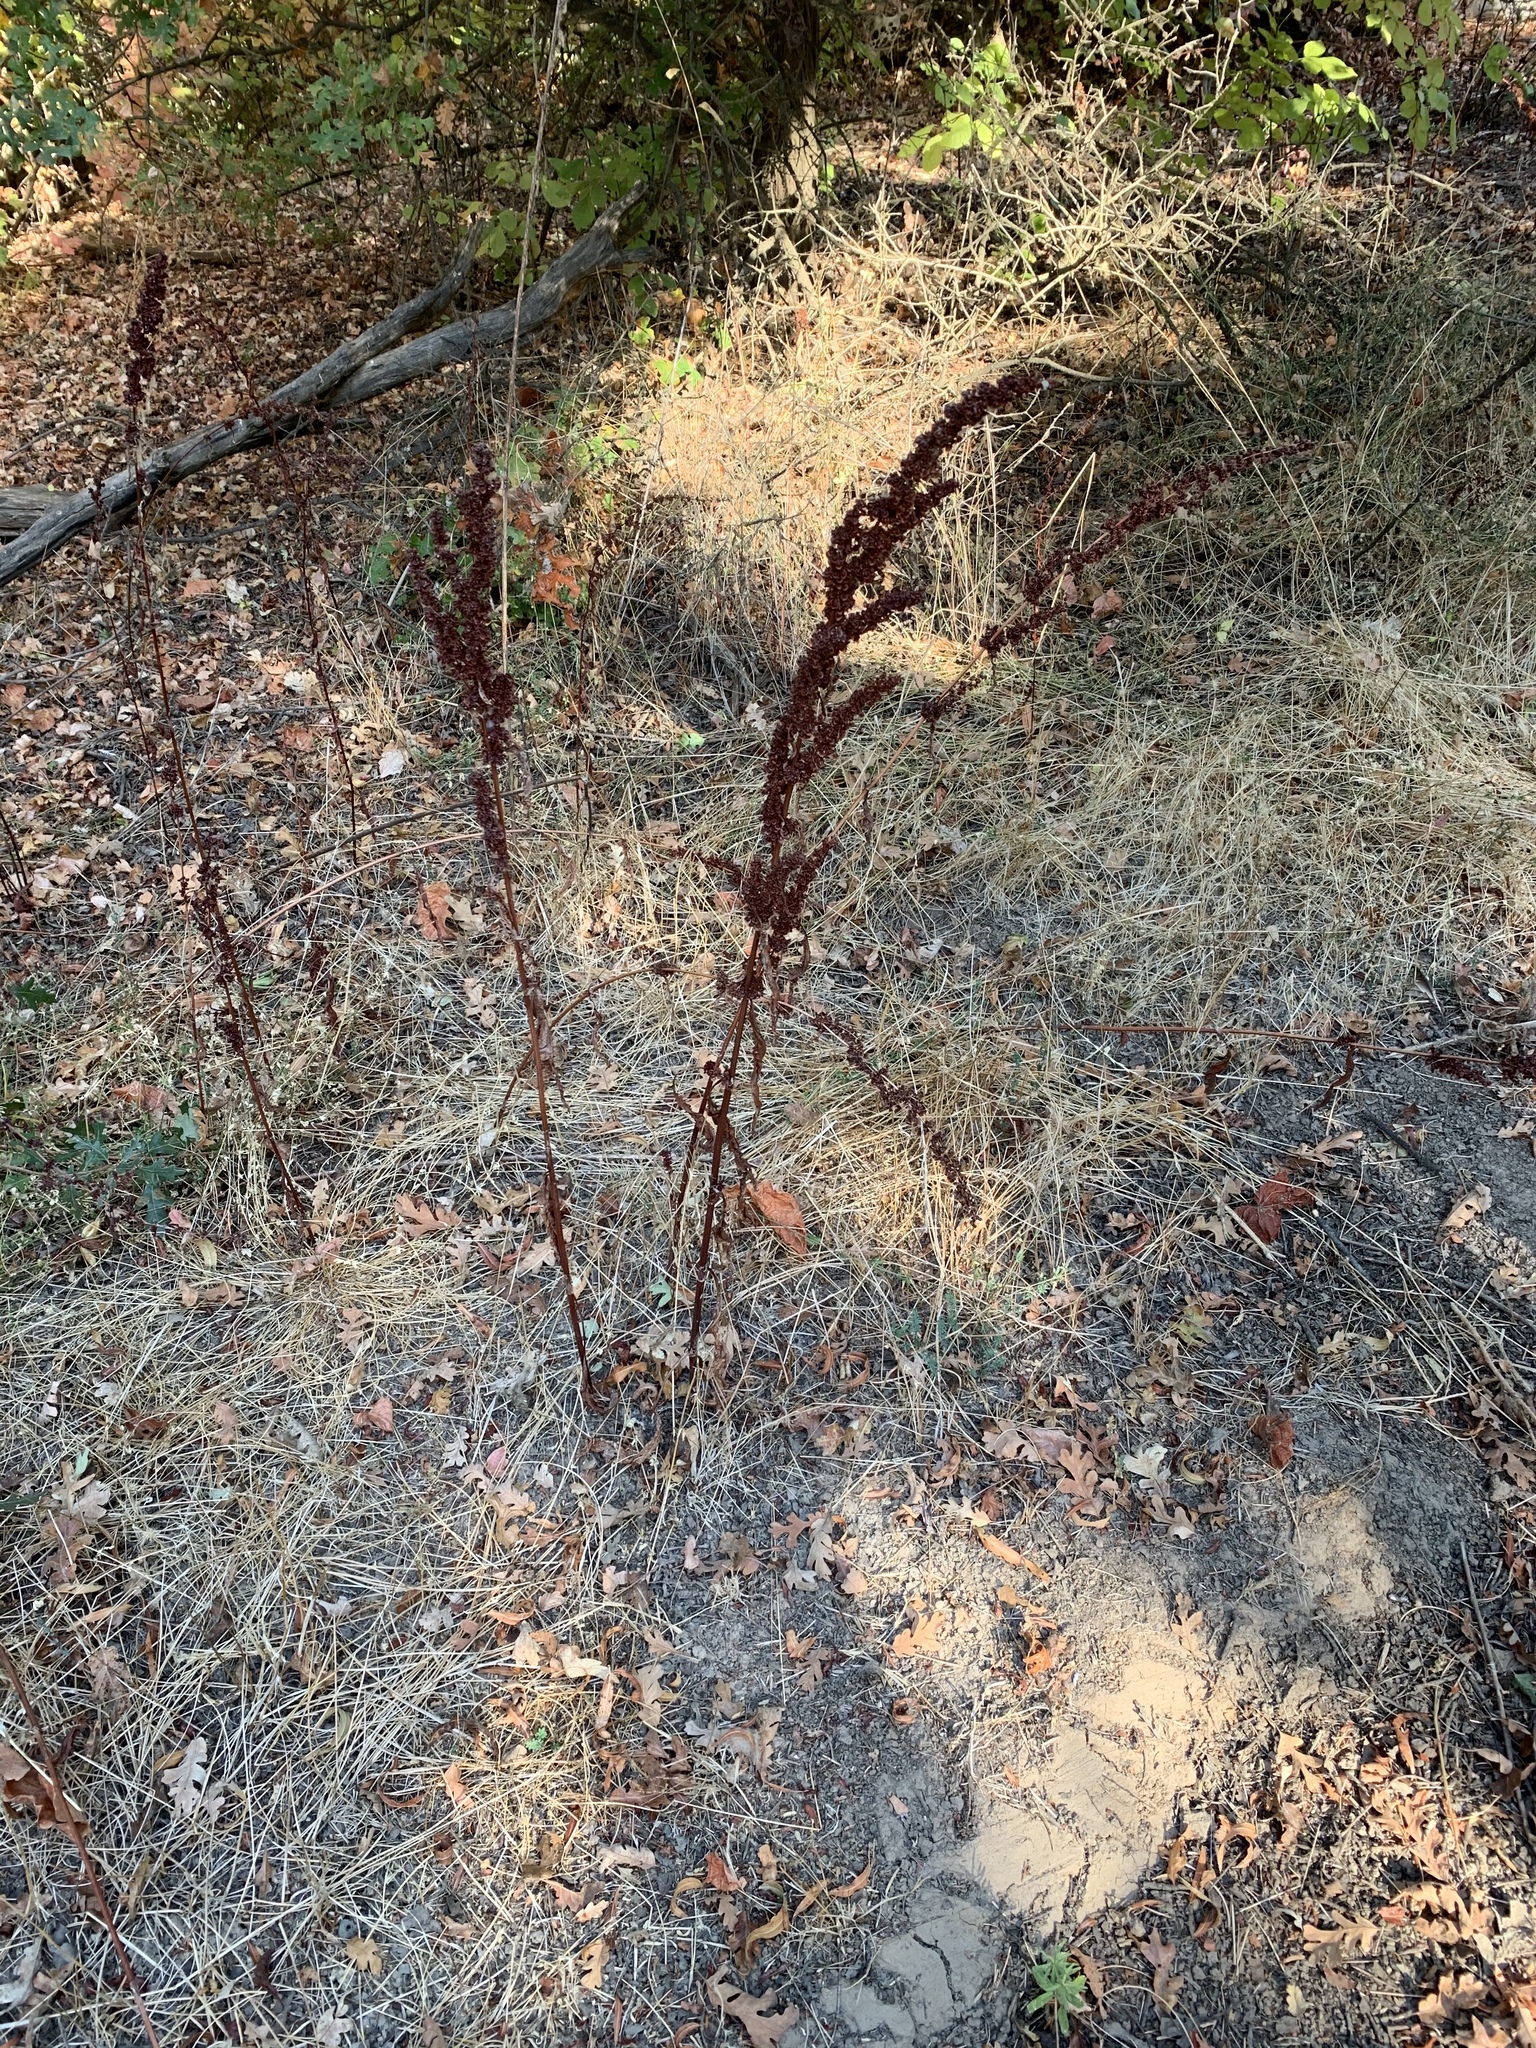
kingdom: Plantae
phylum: Tracheophyta
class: Magnoliopsida
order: Caryophyllales
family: Polygonaceae
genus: Rumex
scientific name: Rumex crispus
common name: Curled dock
